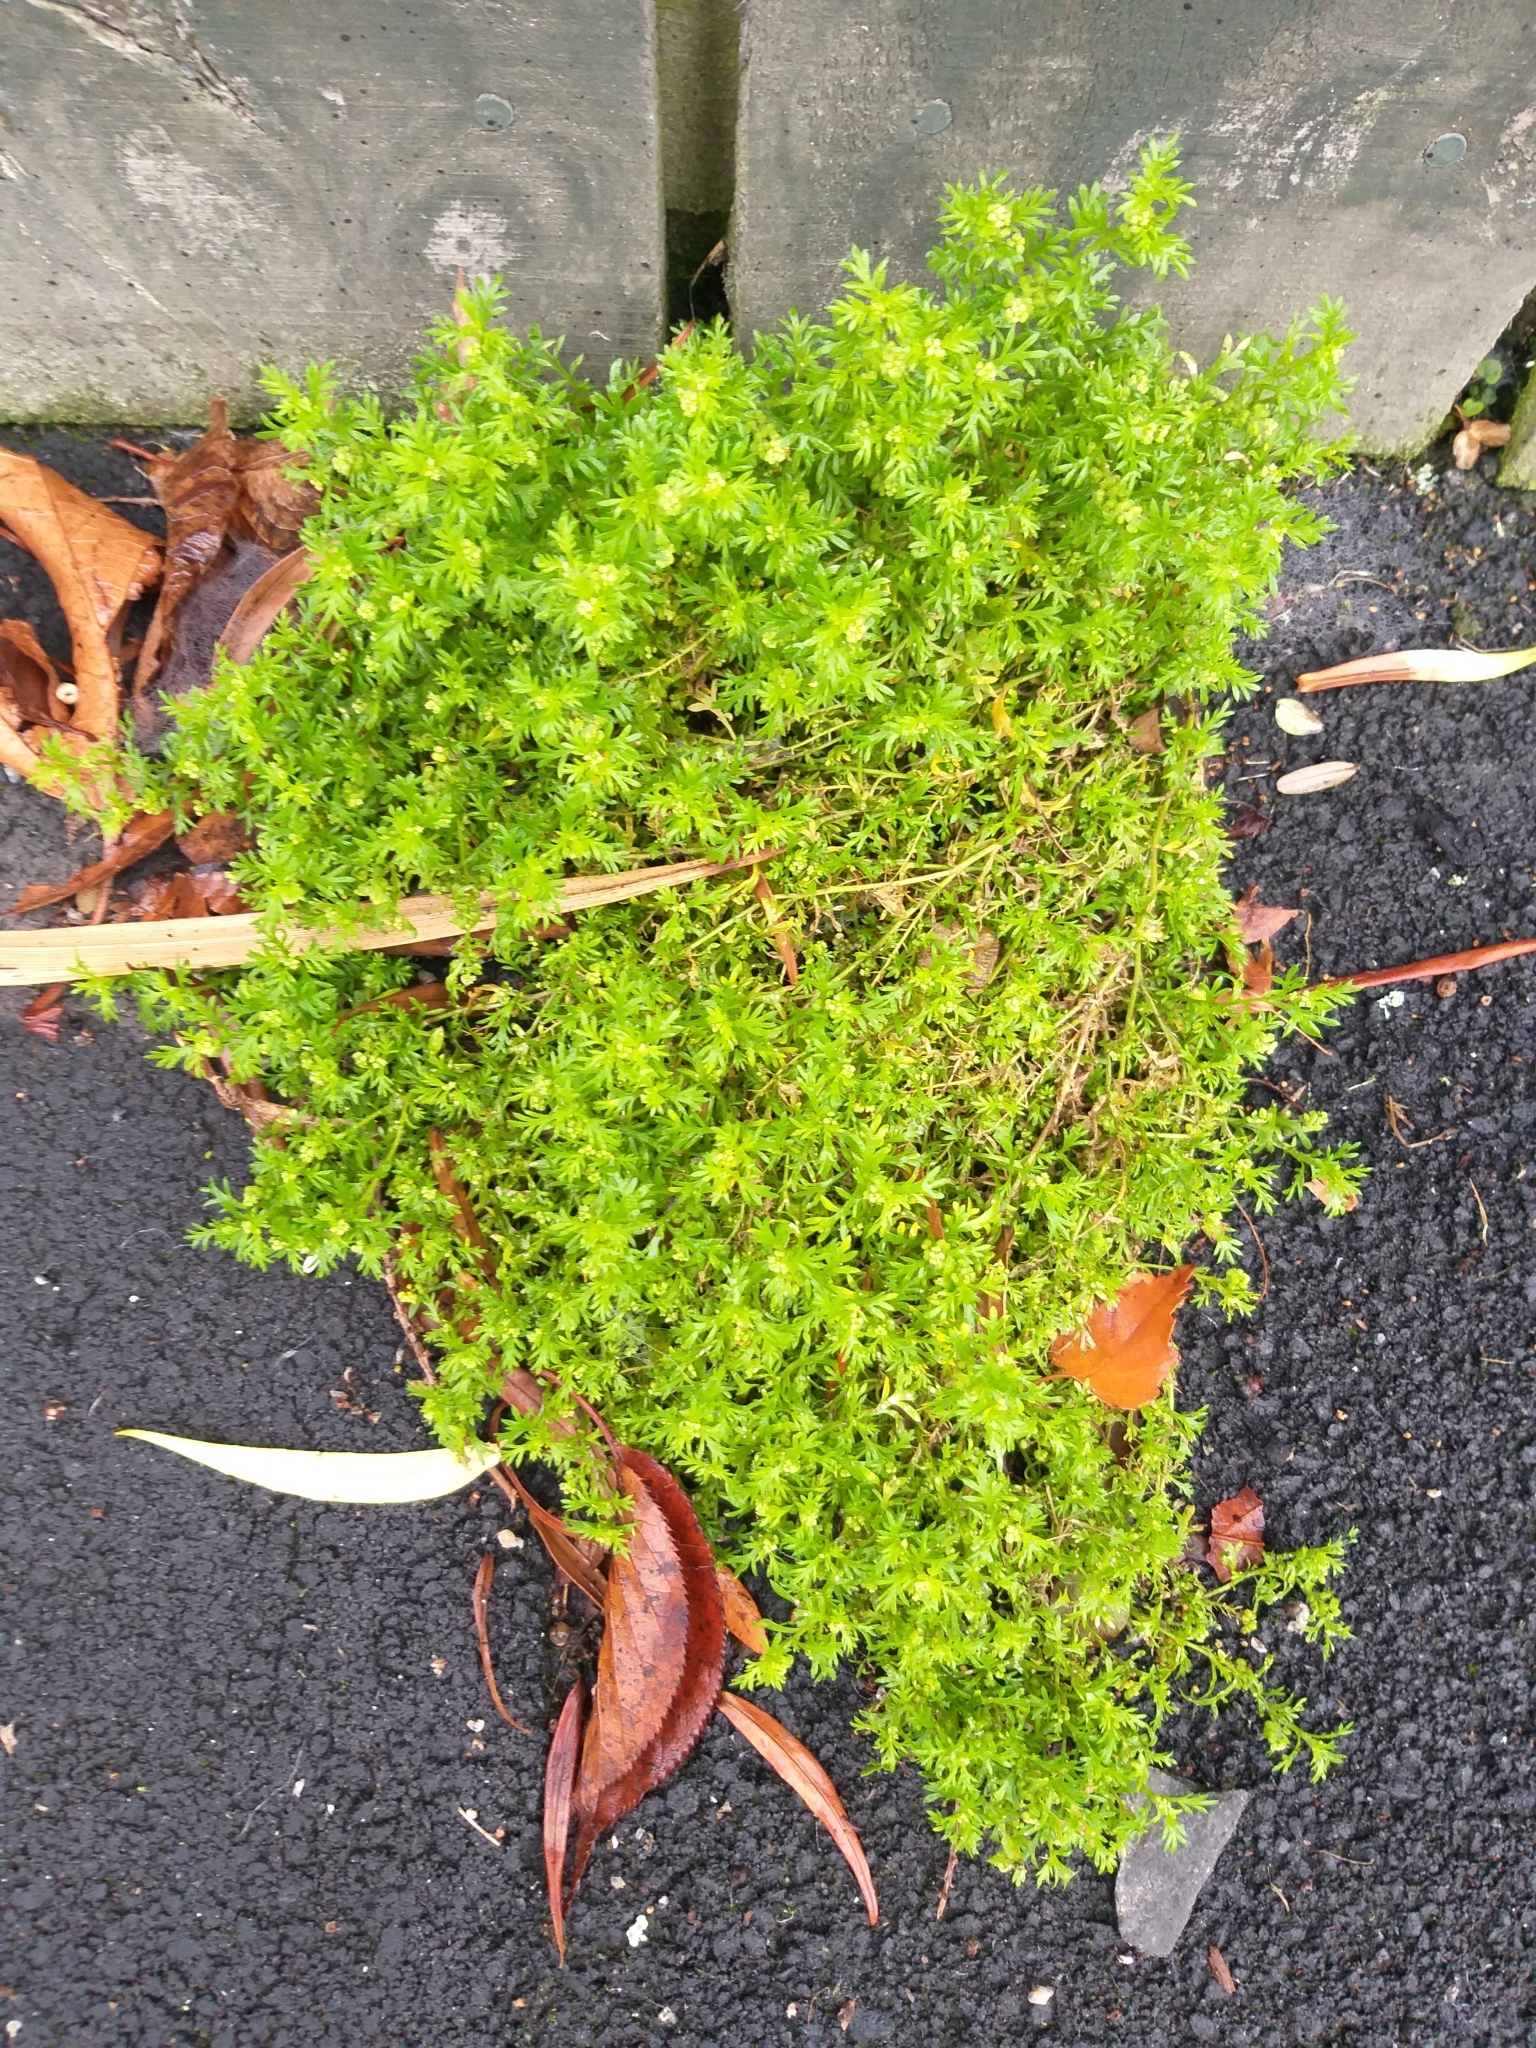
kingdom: Plantae
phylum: Tracheophyta
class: Magnoliopsida
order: Brassicales
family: Brassicaceae
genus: Lepidium
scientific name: Lepidium didymum
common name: Lesser swinecress
